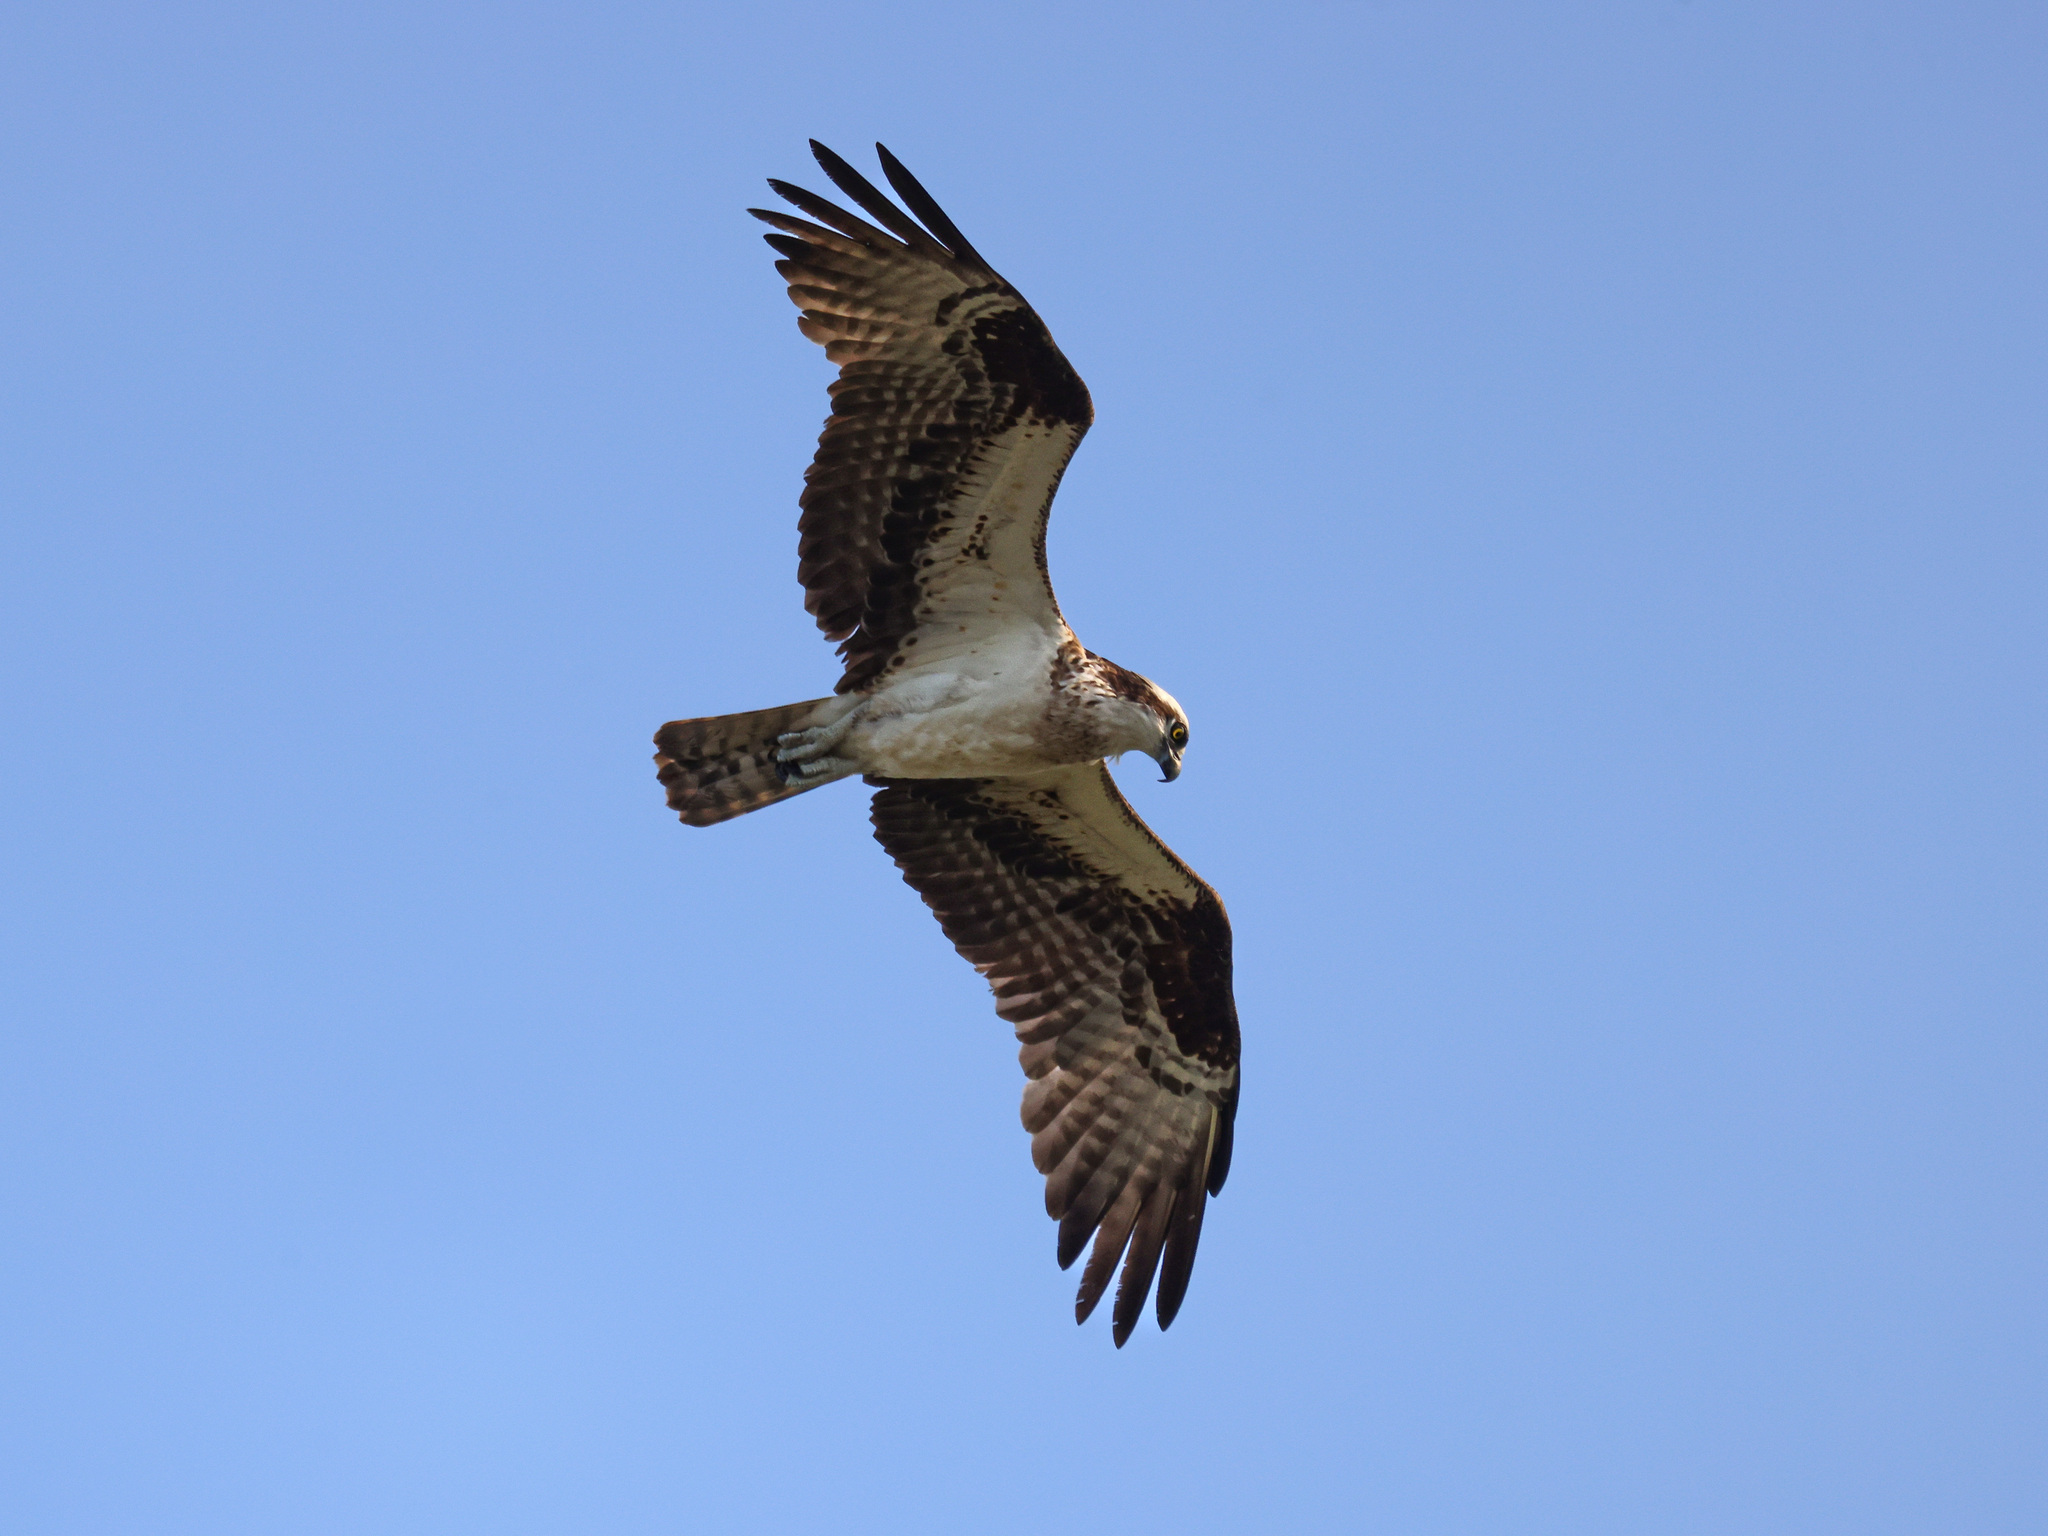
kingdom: Animalia
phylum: Chordata
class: Aves
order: Accipitriformes
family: Pandionidae
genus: Pandion
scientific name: Pandion haliaetus
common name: Osprey
